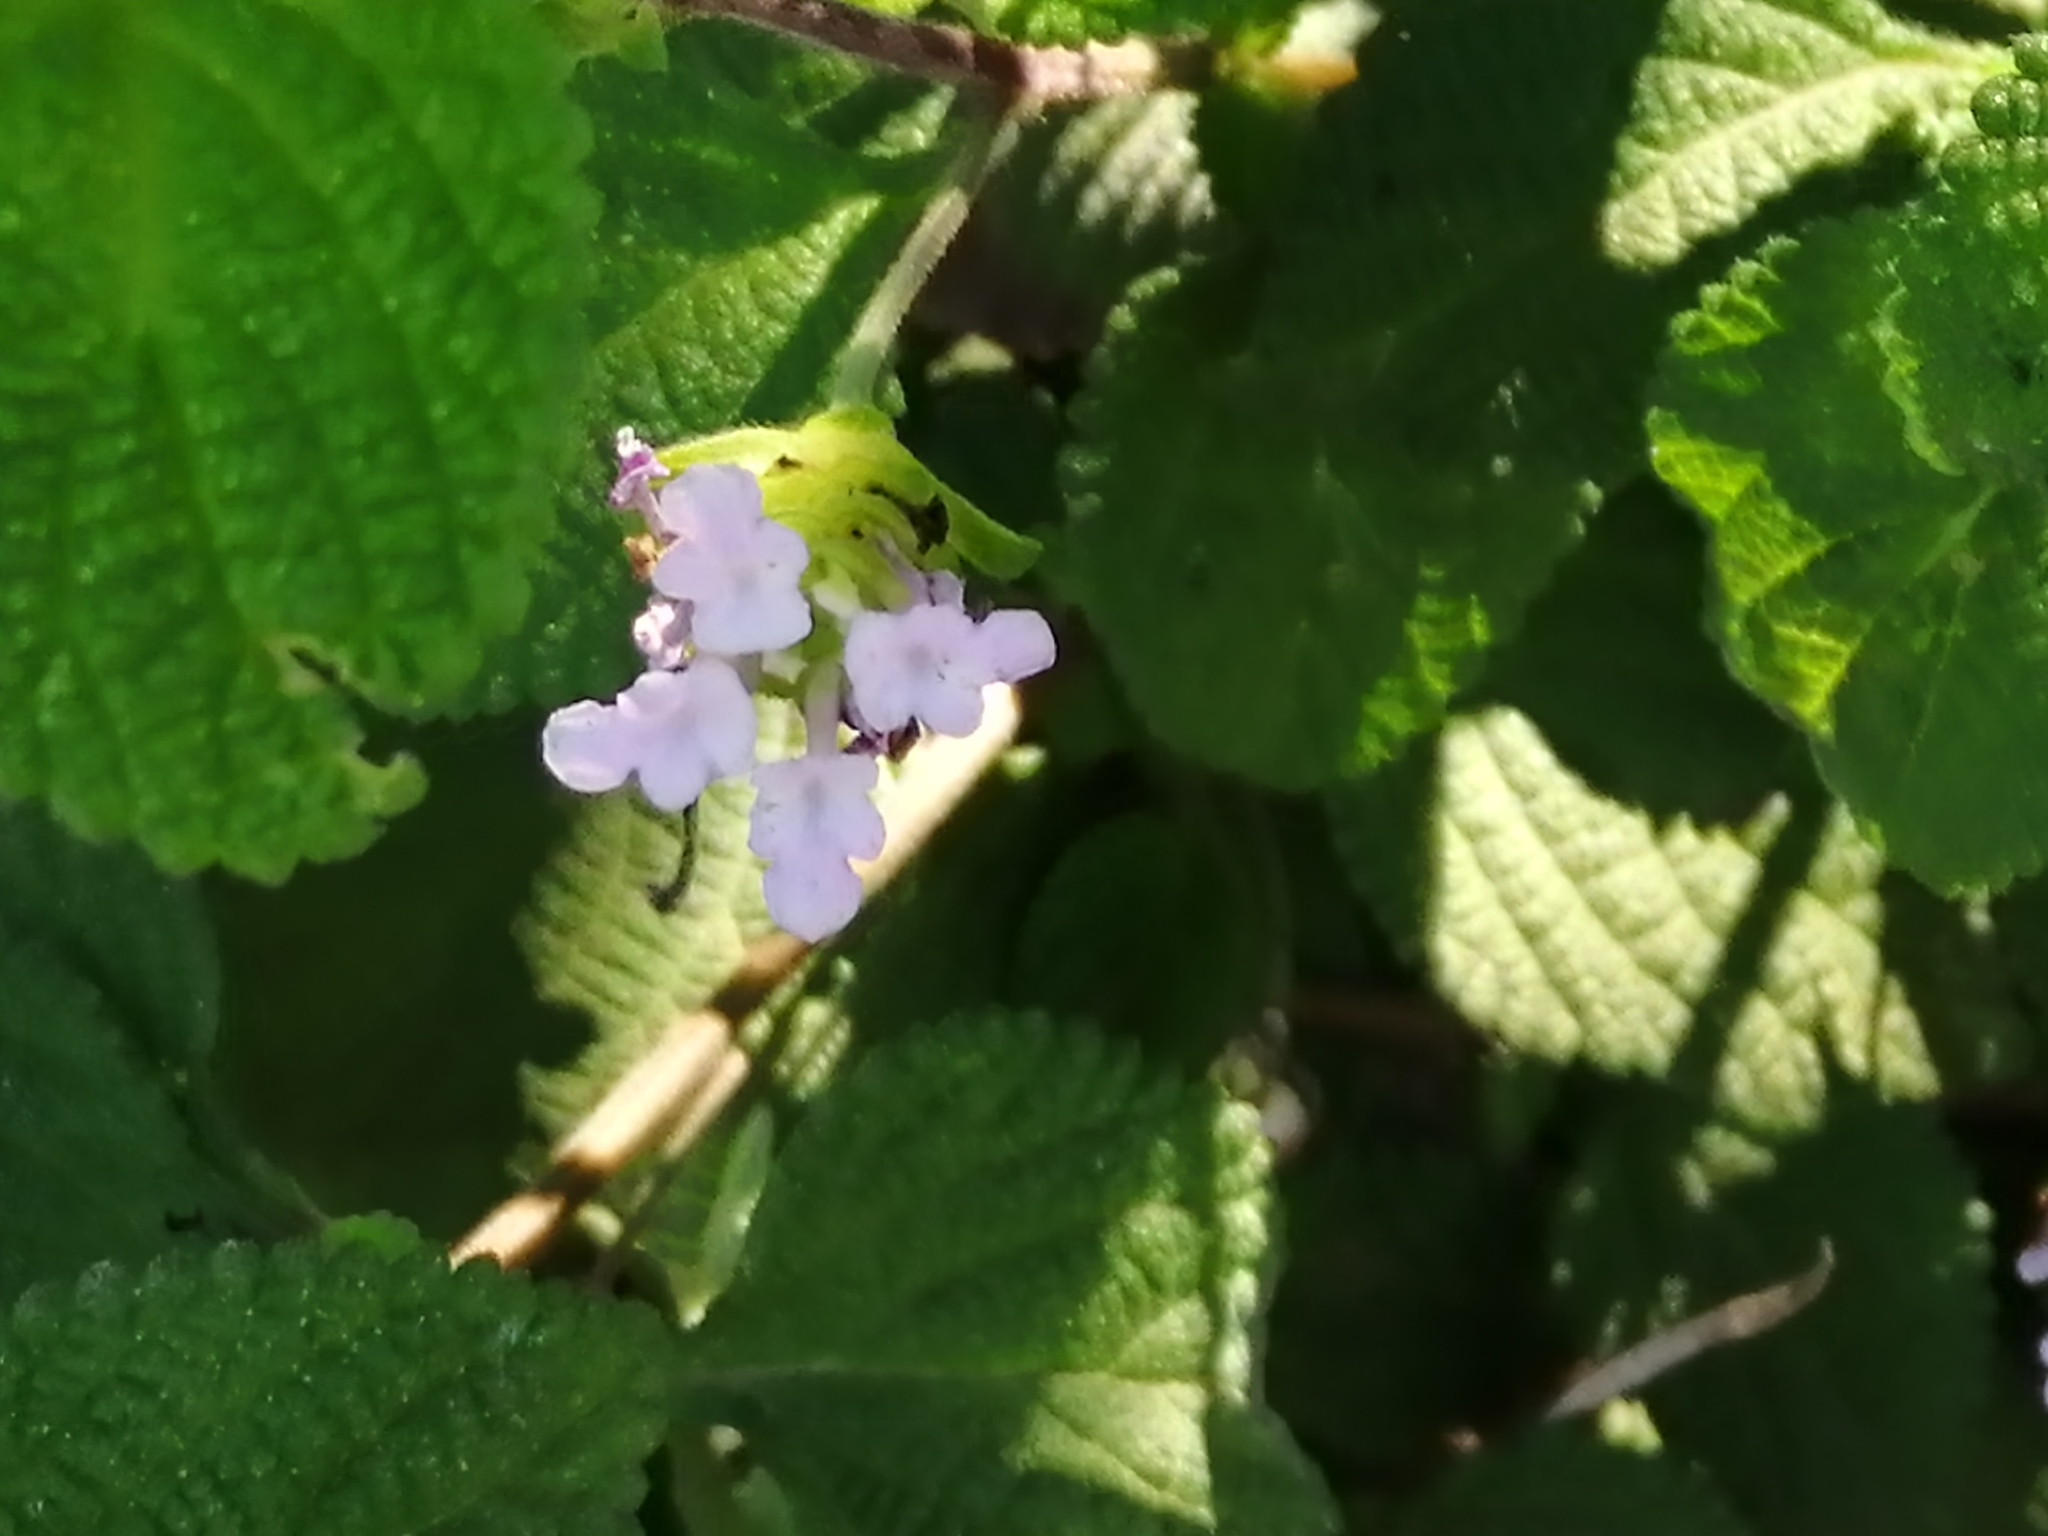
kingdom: Plantae
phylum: Tracheophyta
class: Magnoliopsida
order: Lamiales
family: Verbenaceae
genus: Lantana
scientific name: Lantana velutina
